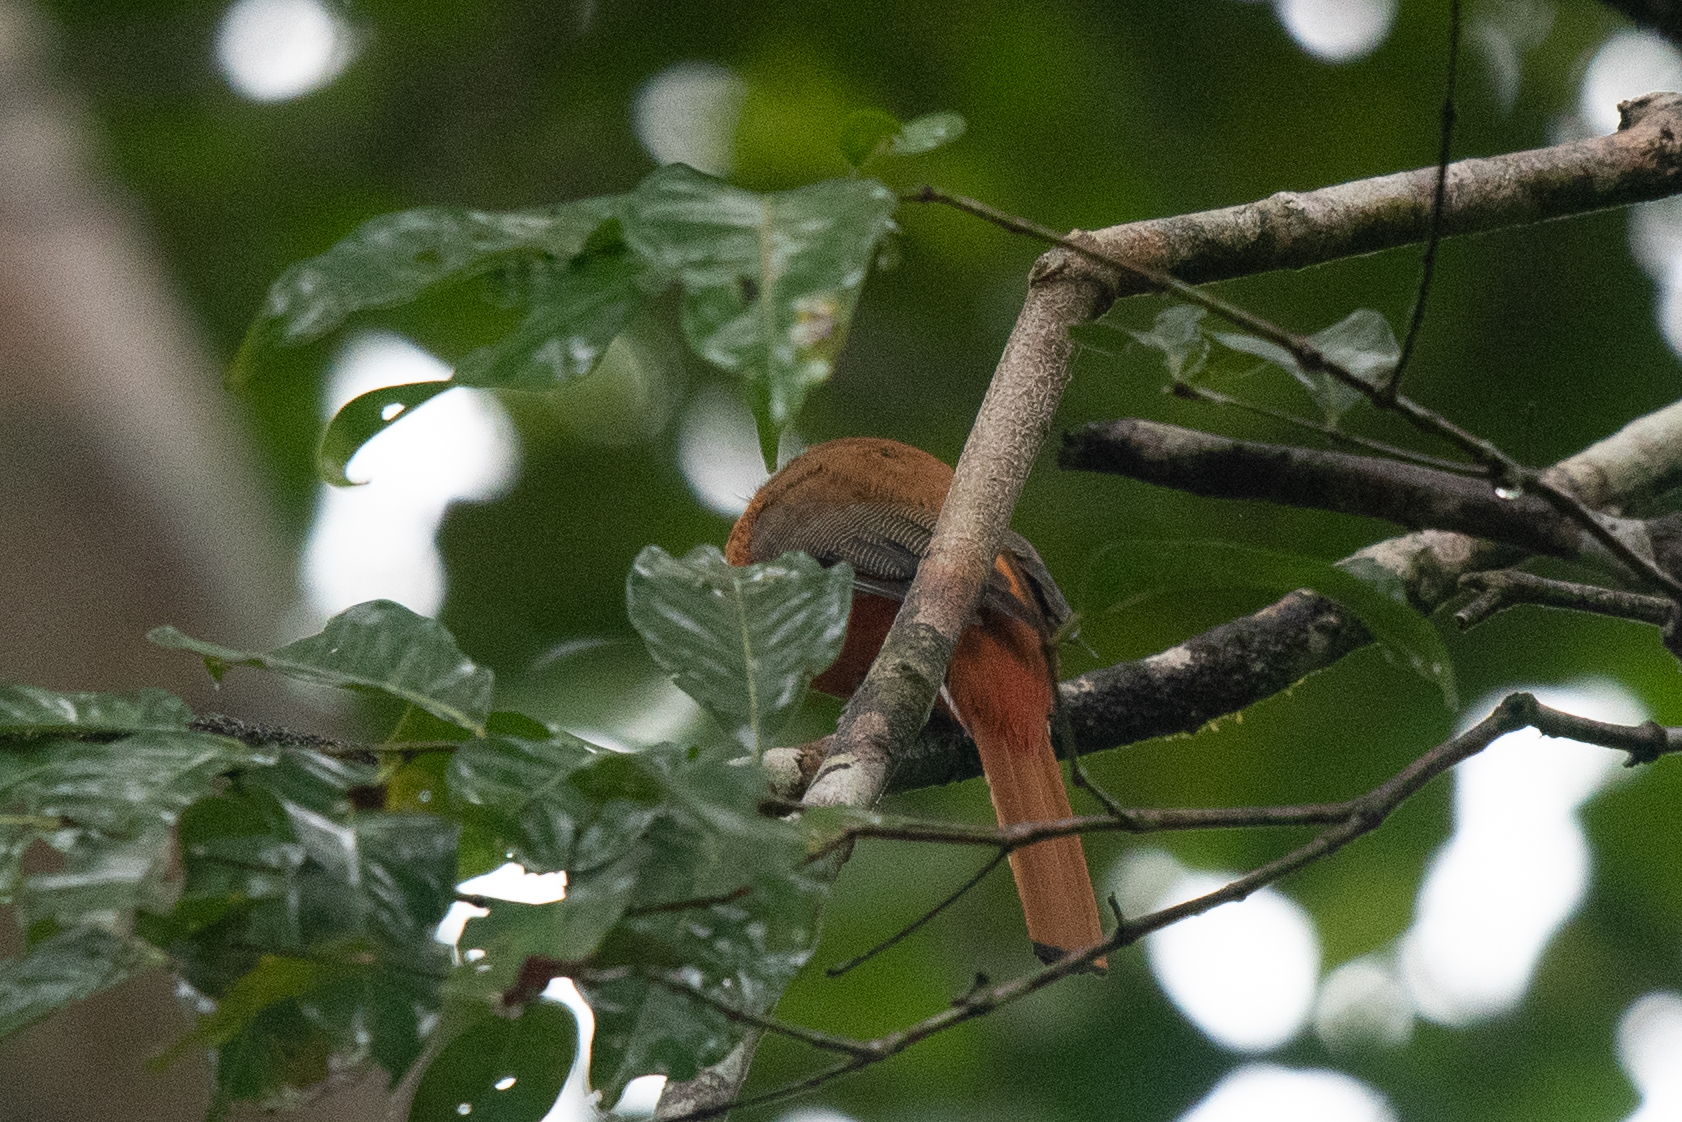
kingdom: Animalia
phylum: Chordata
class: Aves
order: Trogoniformes
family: Trogonidae
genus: Harpactes
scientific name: Harpactes duvaucelii
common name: Scarlet-rumped trogon
